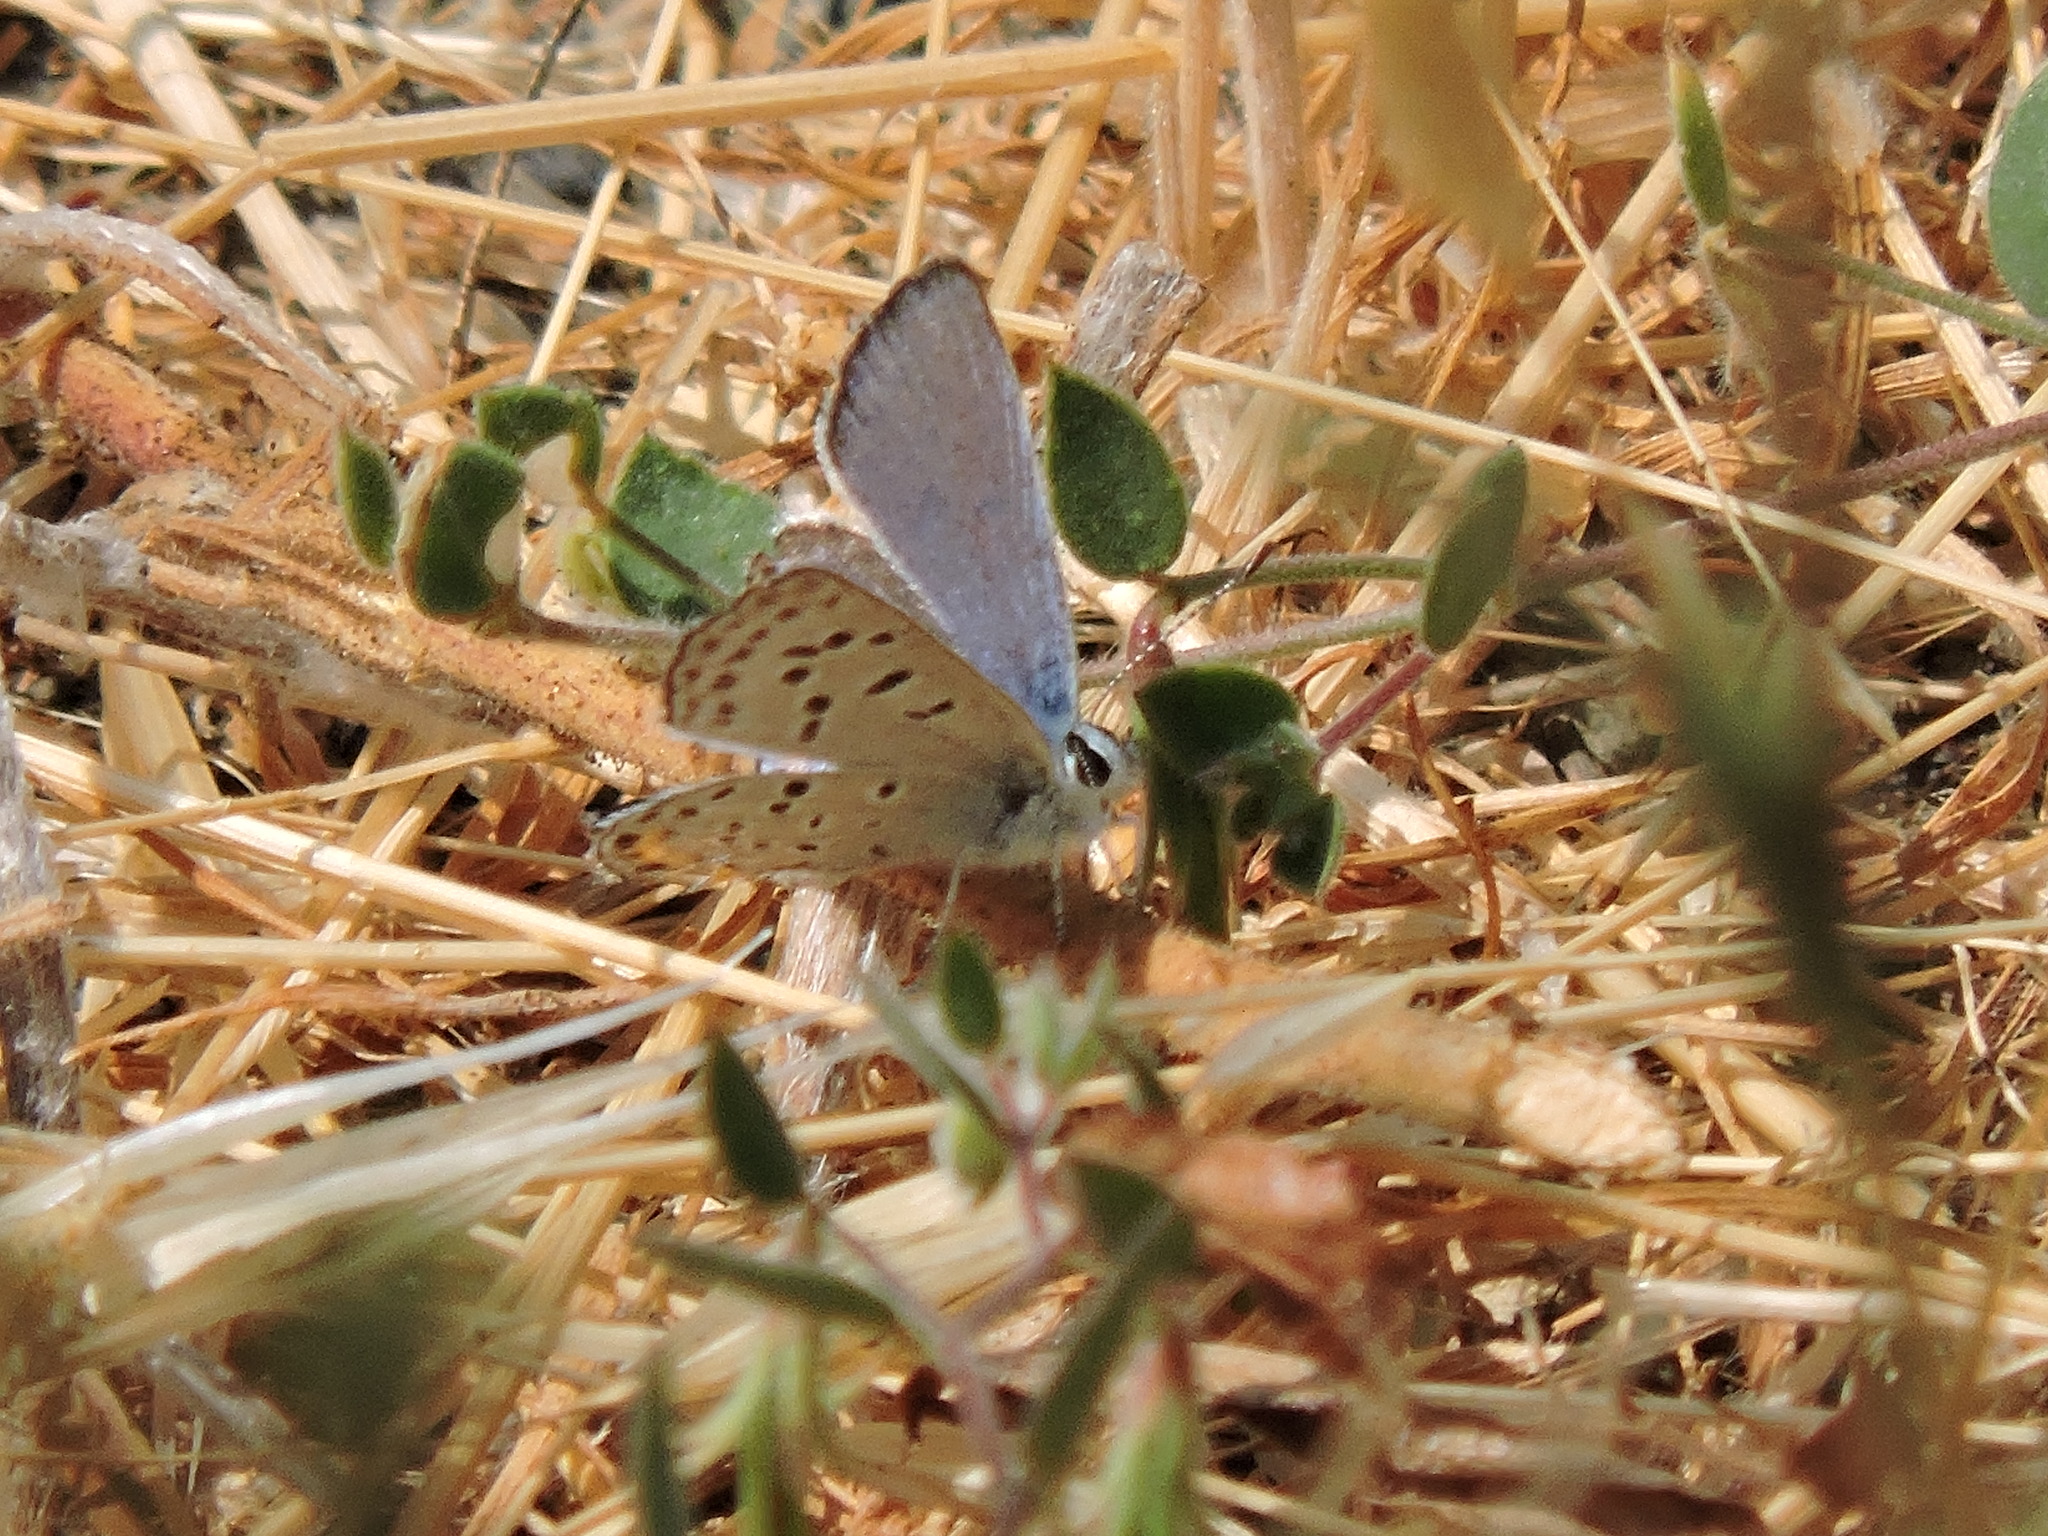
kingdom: Animalia
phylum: Arthropoda
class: Insecta
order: Lepidoptera
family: Lycaenidae
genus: Icaricia
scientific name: Icaricia acmon
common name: Acmon blue
